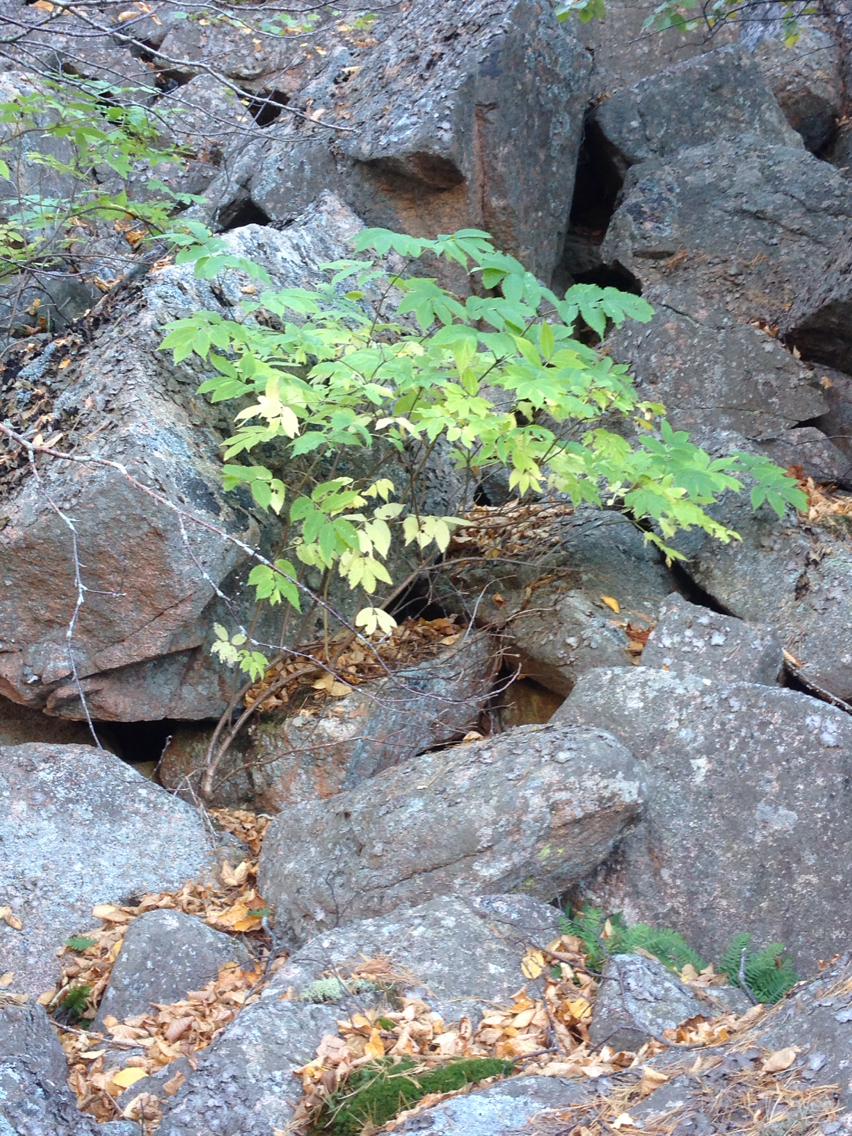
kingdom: Plantae
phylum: Tracheophyta
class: Magnoliopsida
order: Dipsacales
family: Viburnaceae
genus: Sambucus
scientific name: Sambucus racemosa
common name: Red-berried elder
